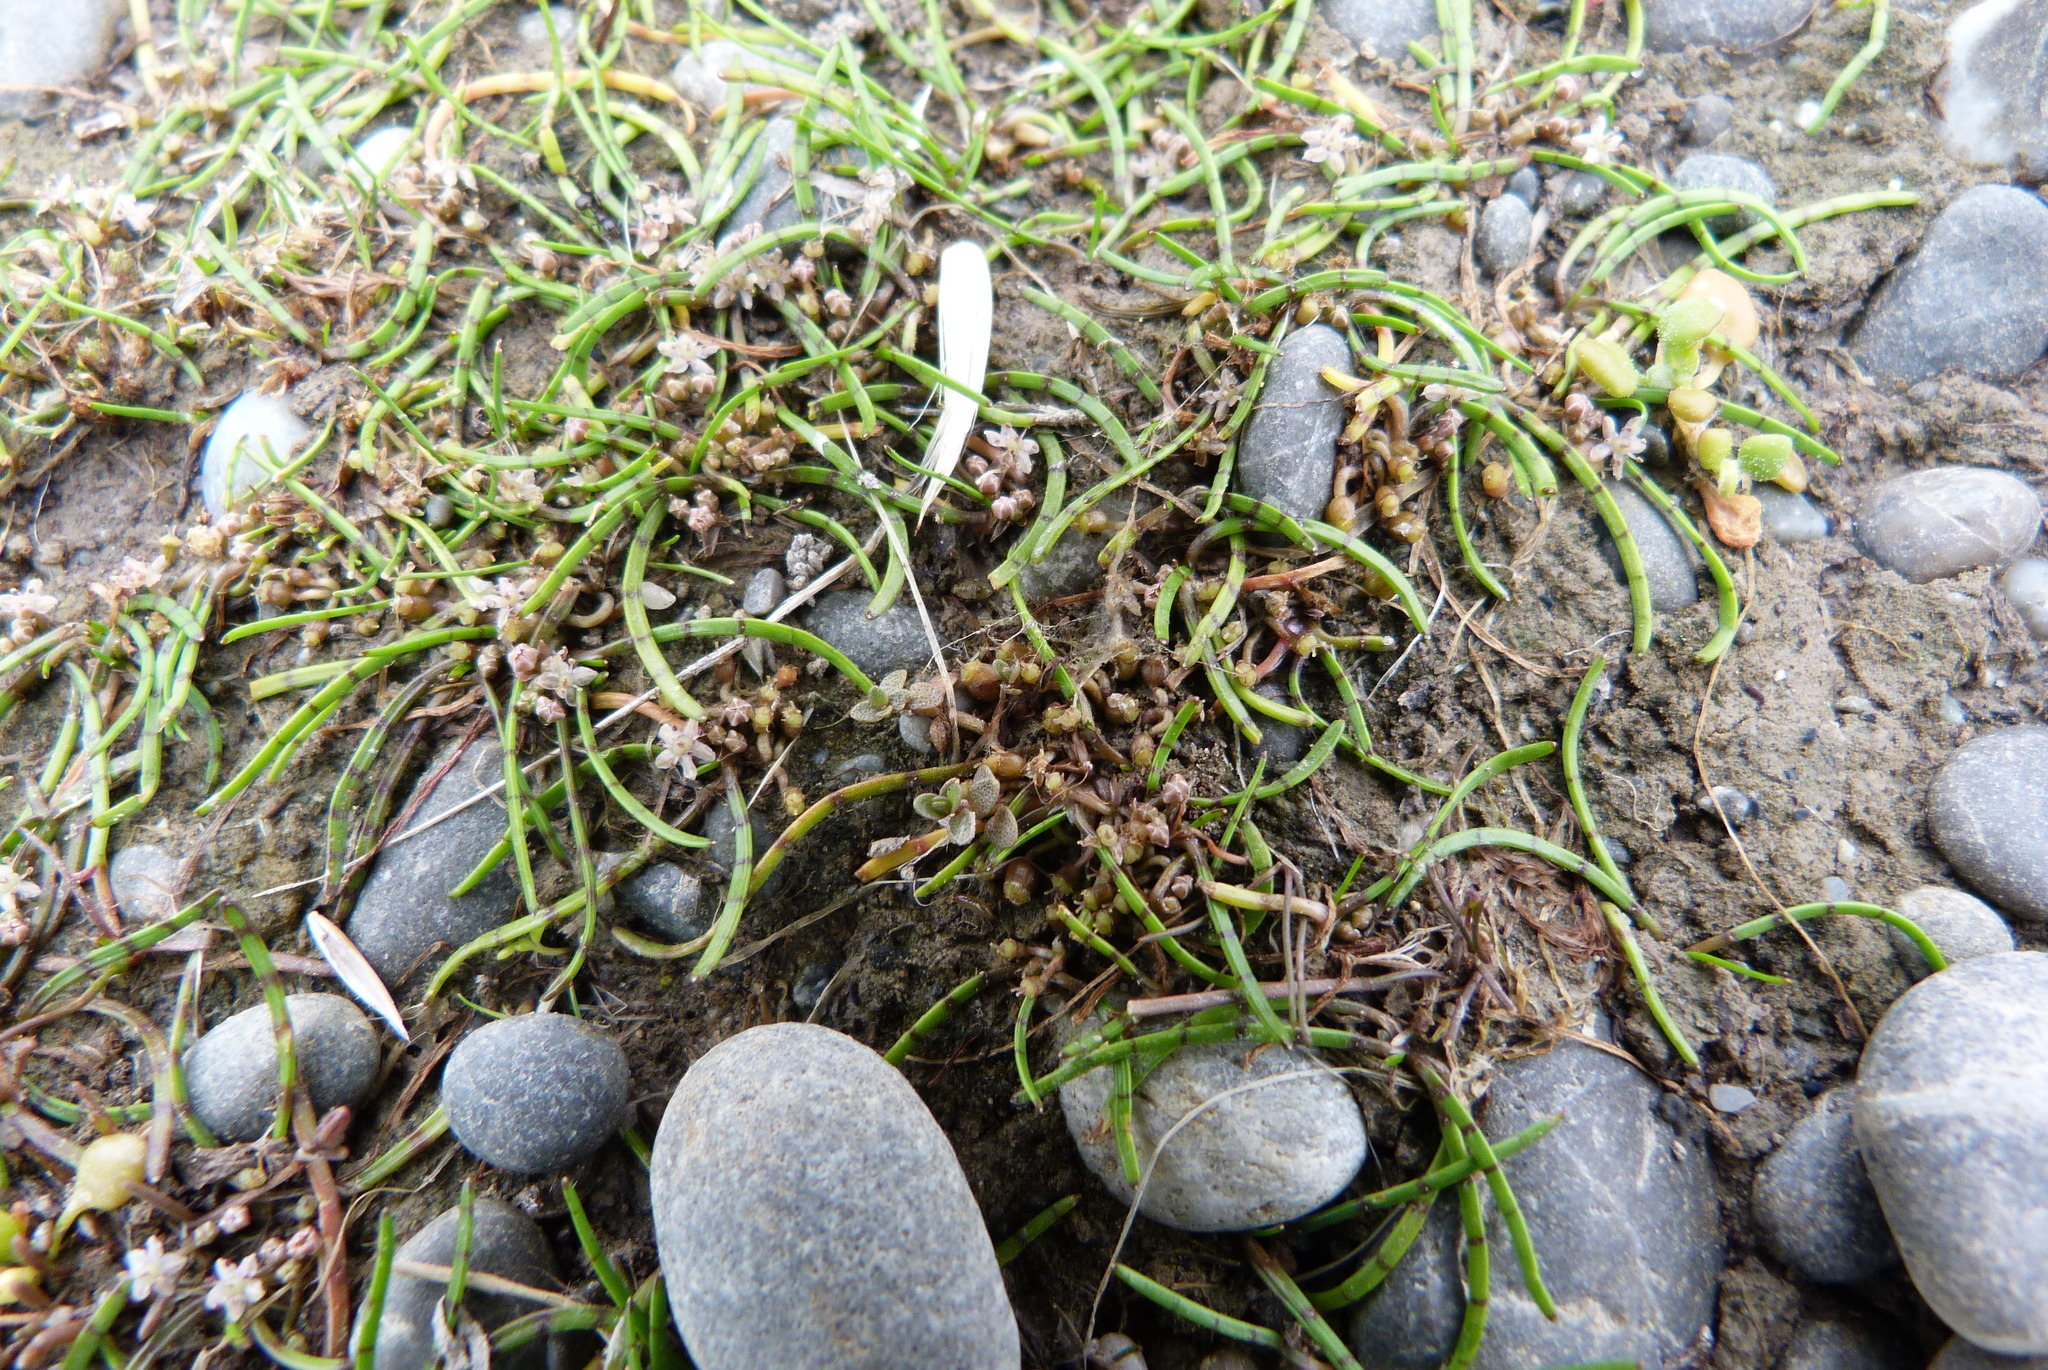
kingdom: Plantae
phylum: Tracheophyta
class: Magnoliopsida
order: Apiales
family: Apiaceae
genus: Lilaeopsis
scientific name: Lilaeopsis novae-zelandiae
